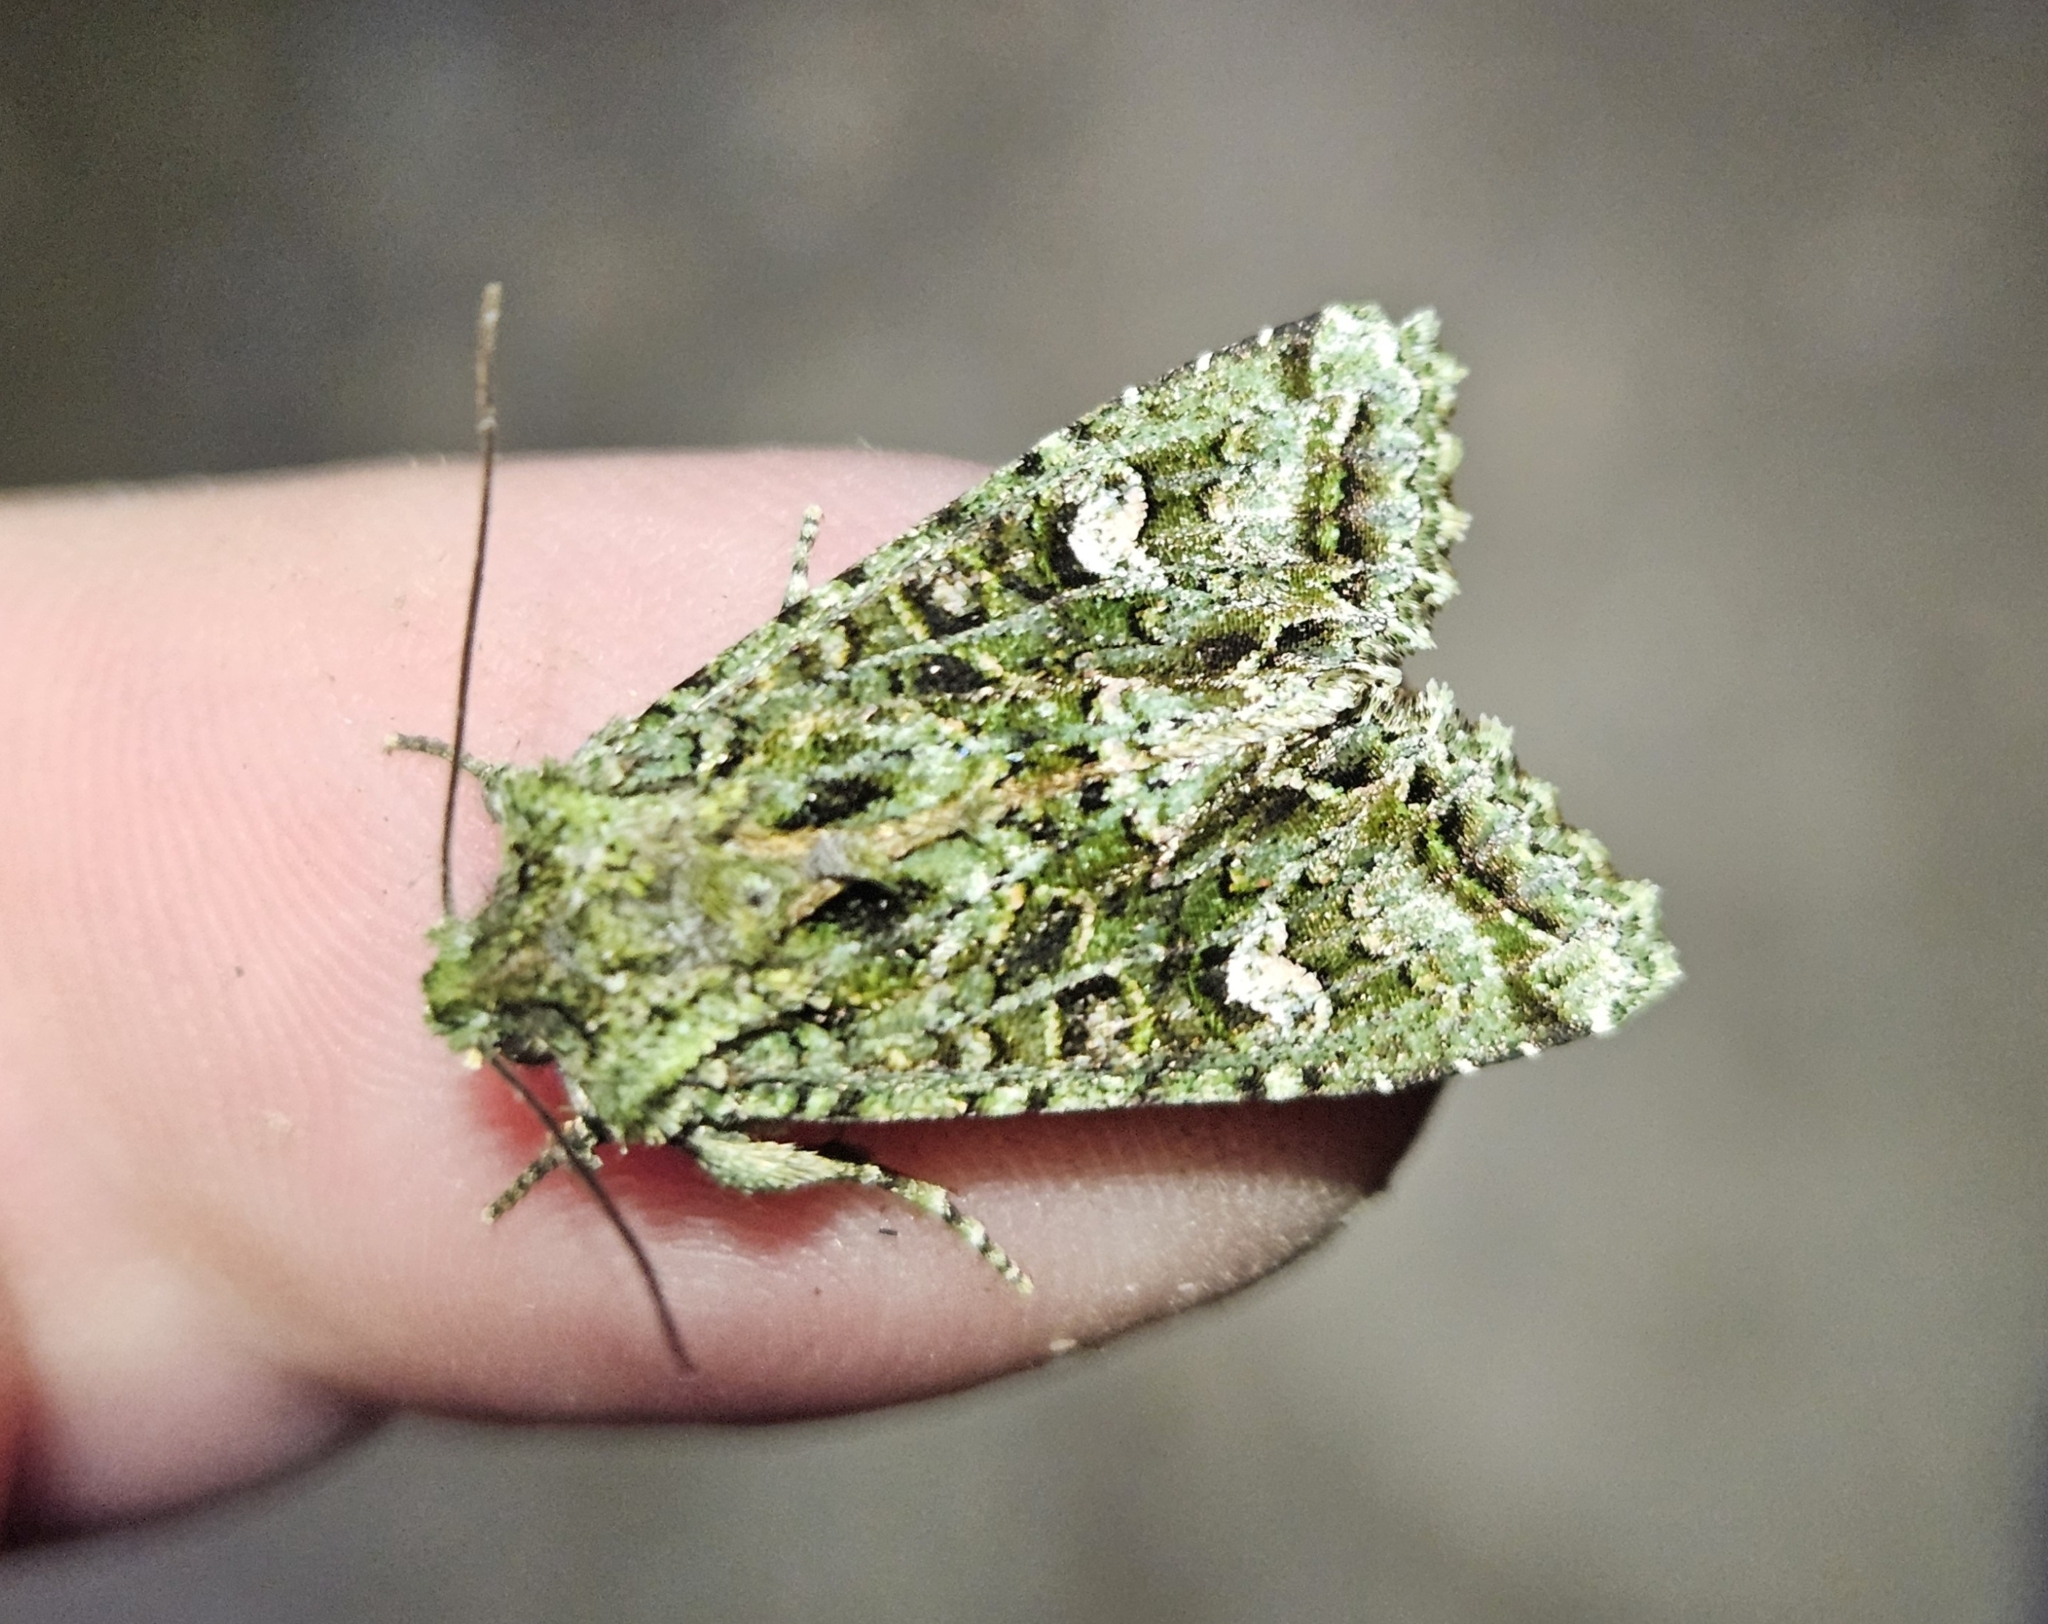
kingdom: Animalia
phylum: Arthropoda
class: Insecta
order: Lepidoptera
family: Noctuidae
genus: Ichneutica
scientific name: Ichneutica
